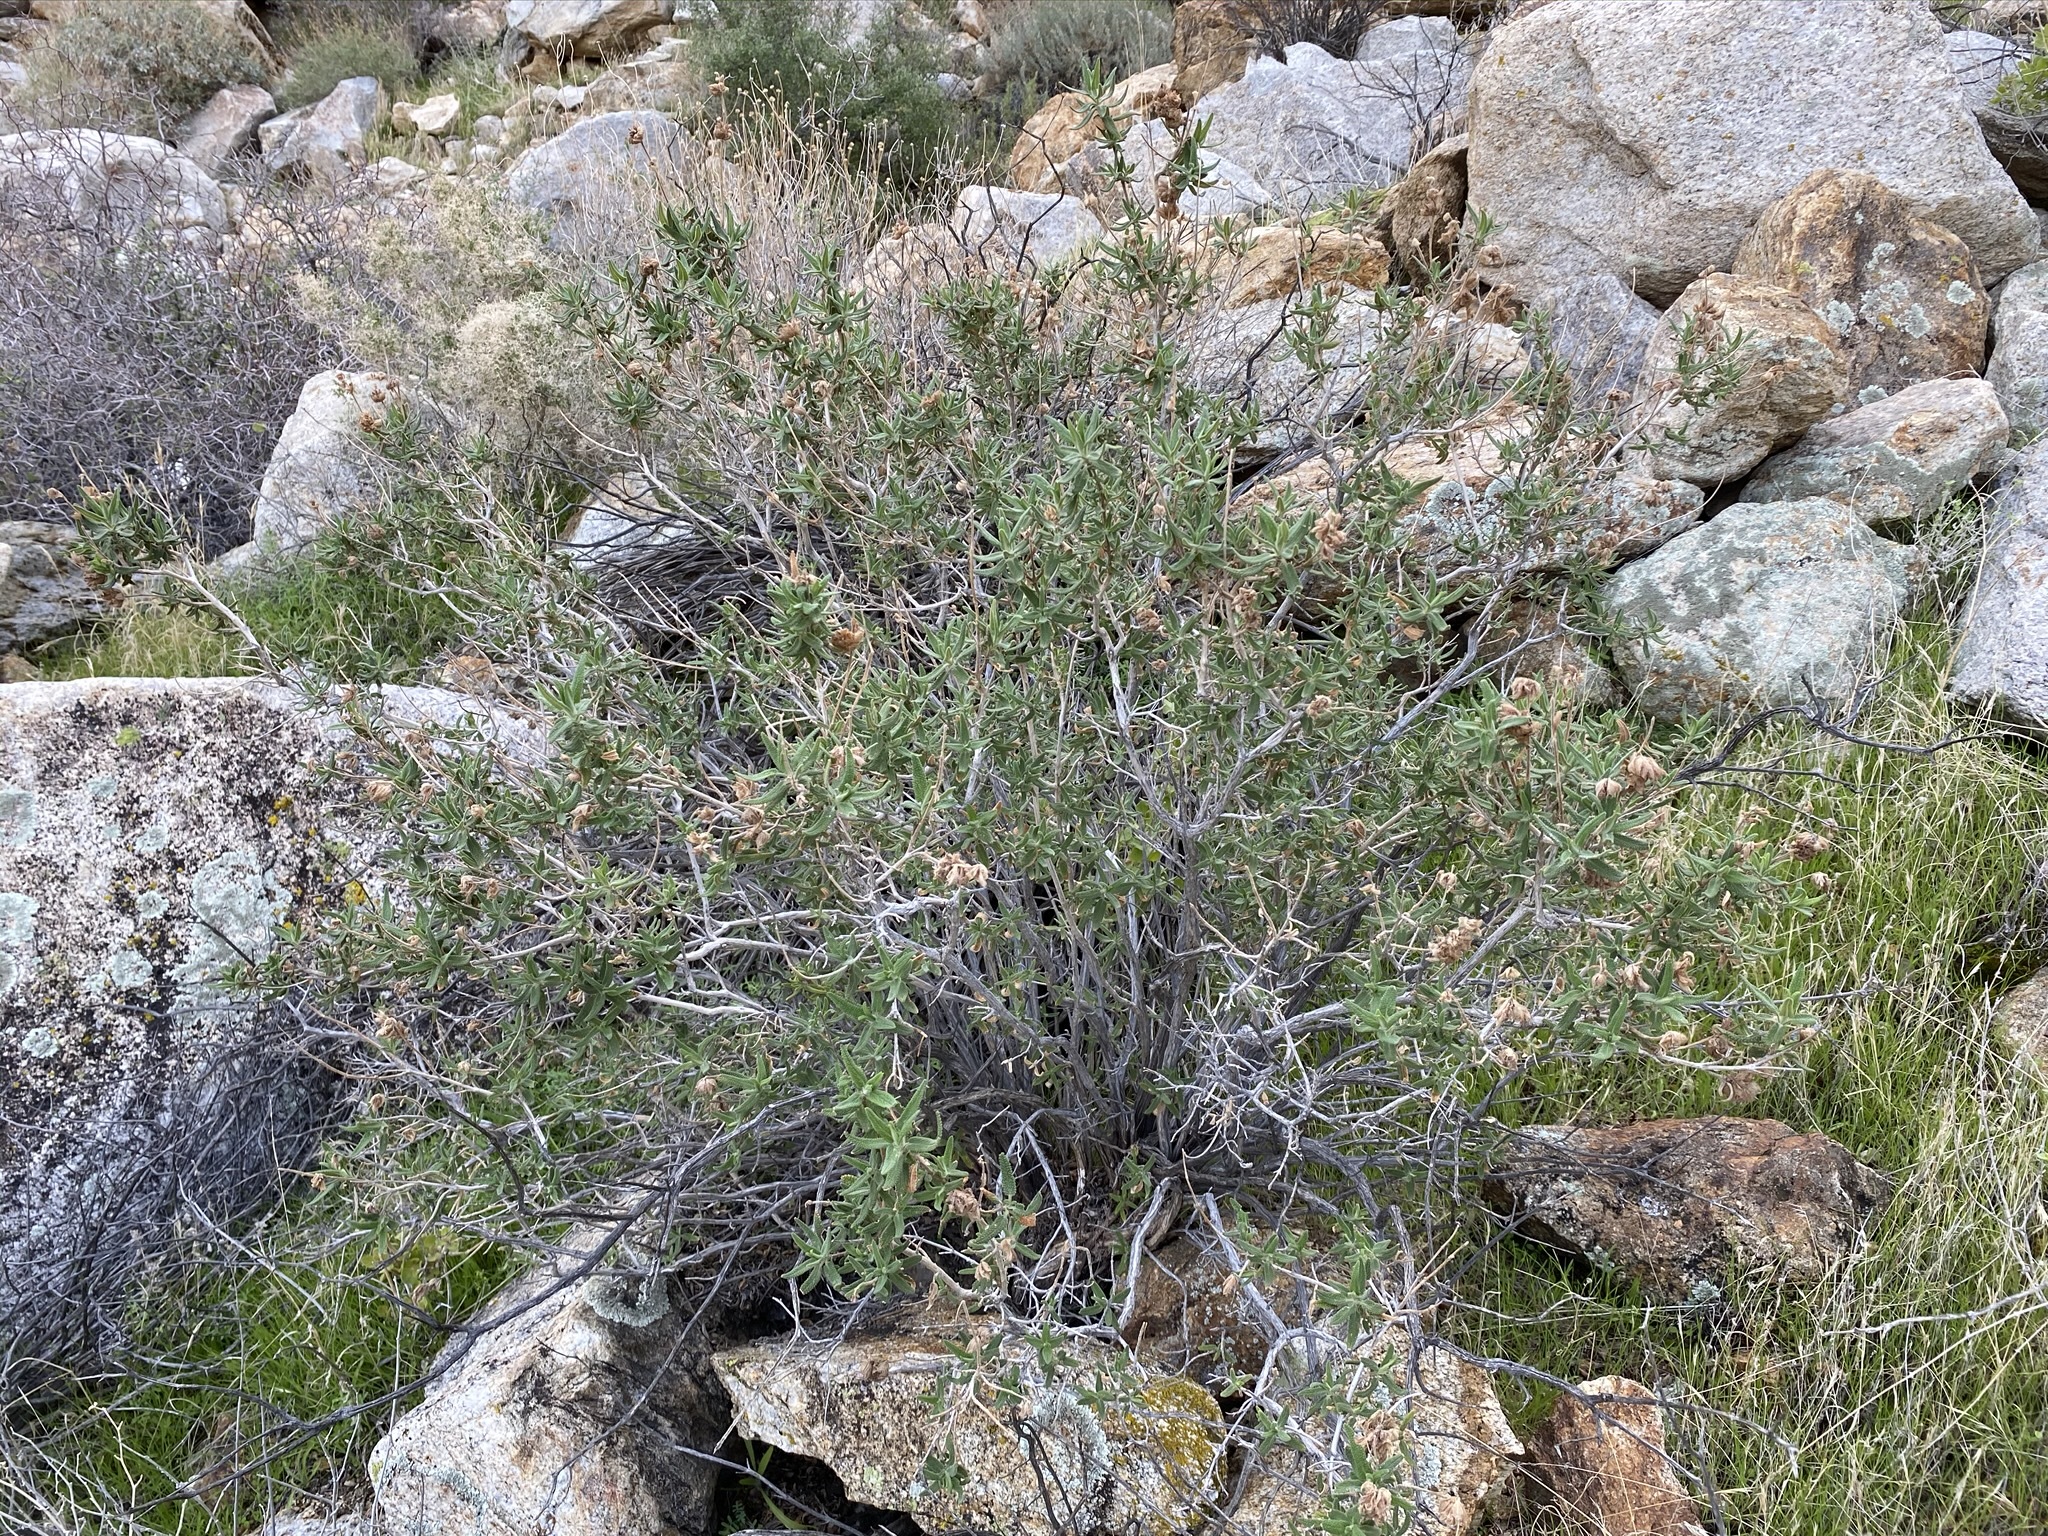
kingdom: Plantae
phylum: Tracheophyta
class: Magnoliopsida
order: Lamiales
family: Lamiaceae
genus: Salvia
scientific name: Salvia eremostachya
